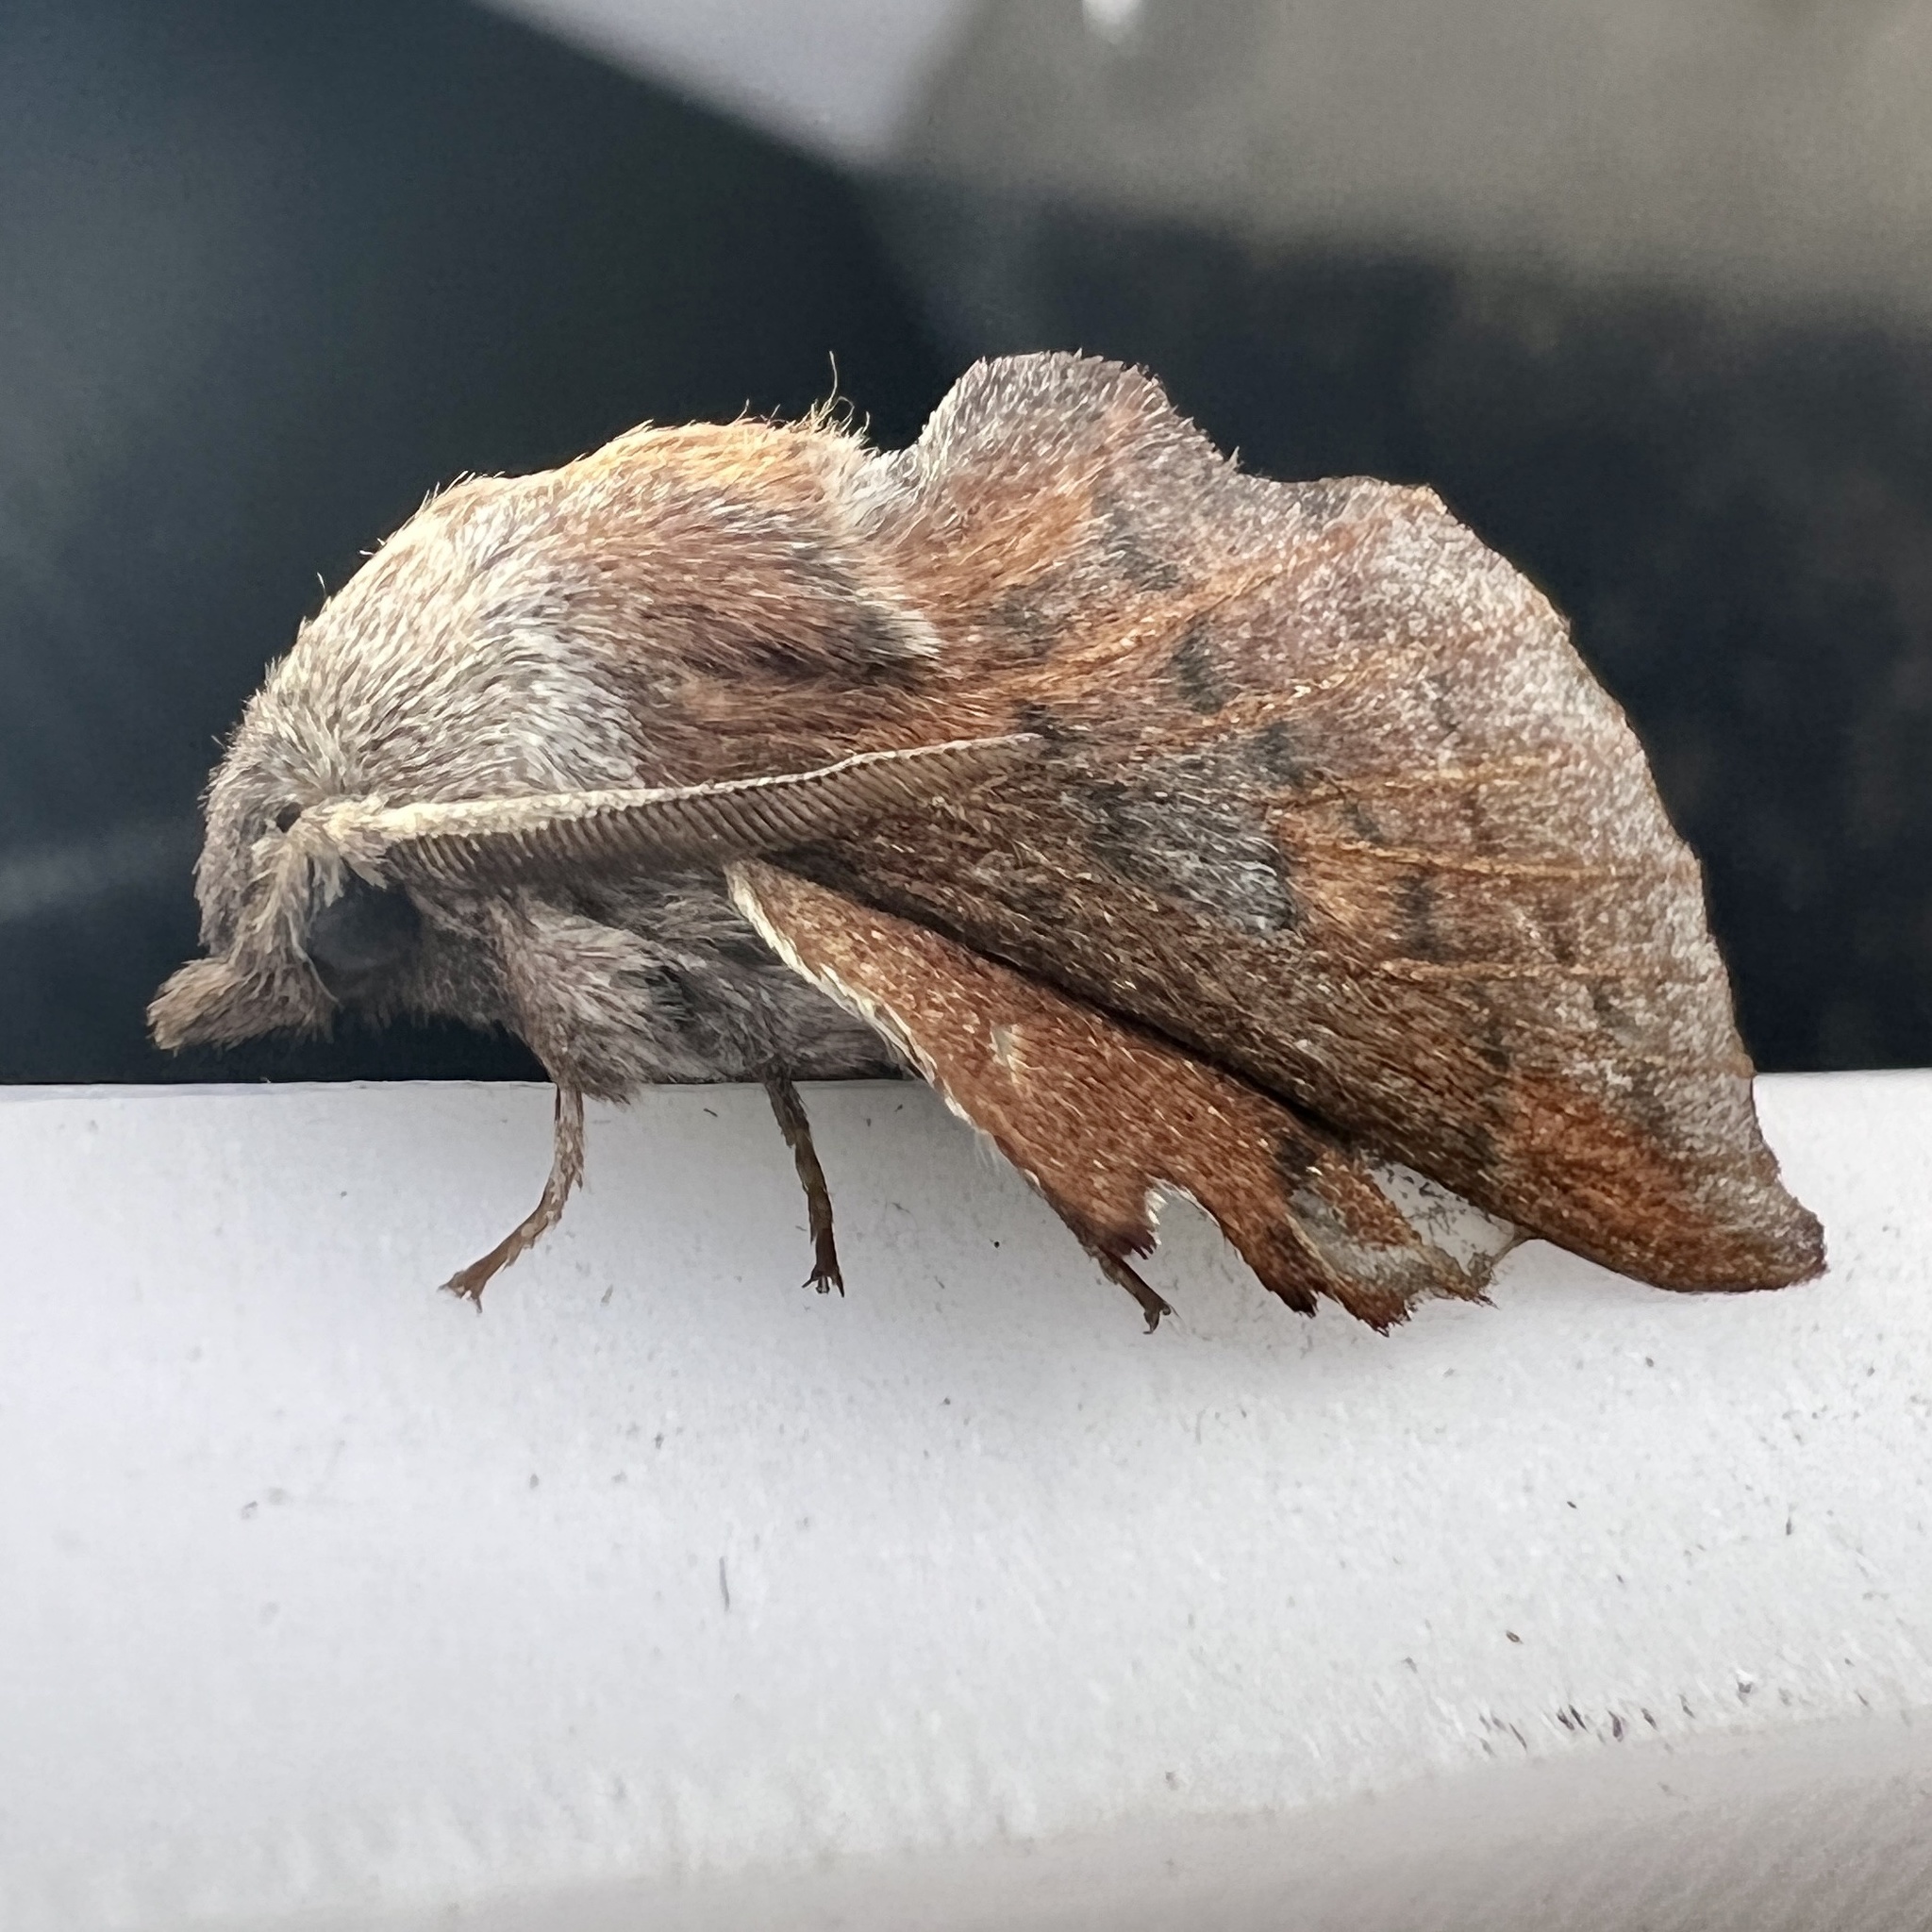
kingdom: Animalia
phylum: Arthropoda
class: Insecta
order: Lepidoptera
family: Lasiocampidae
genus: Phyllodesma
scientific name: Phyllodesma americana
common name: American lappet moth
